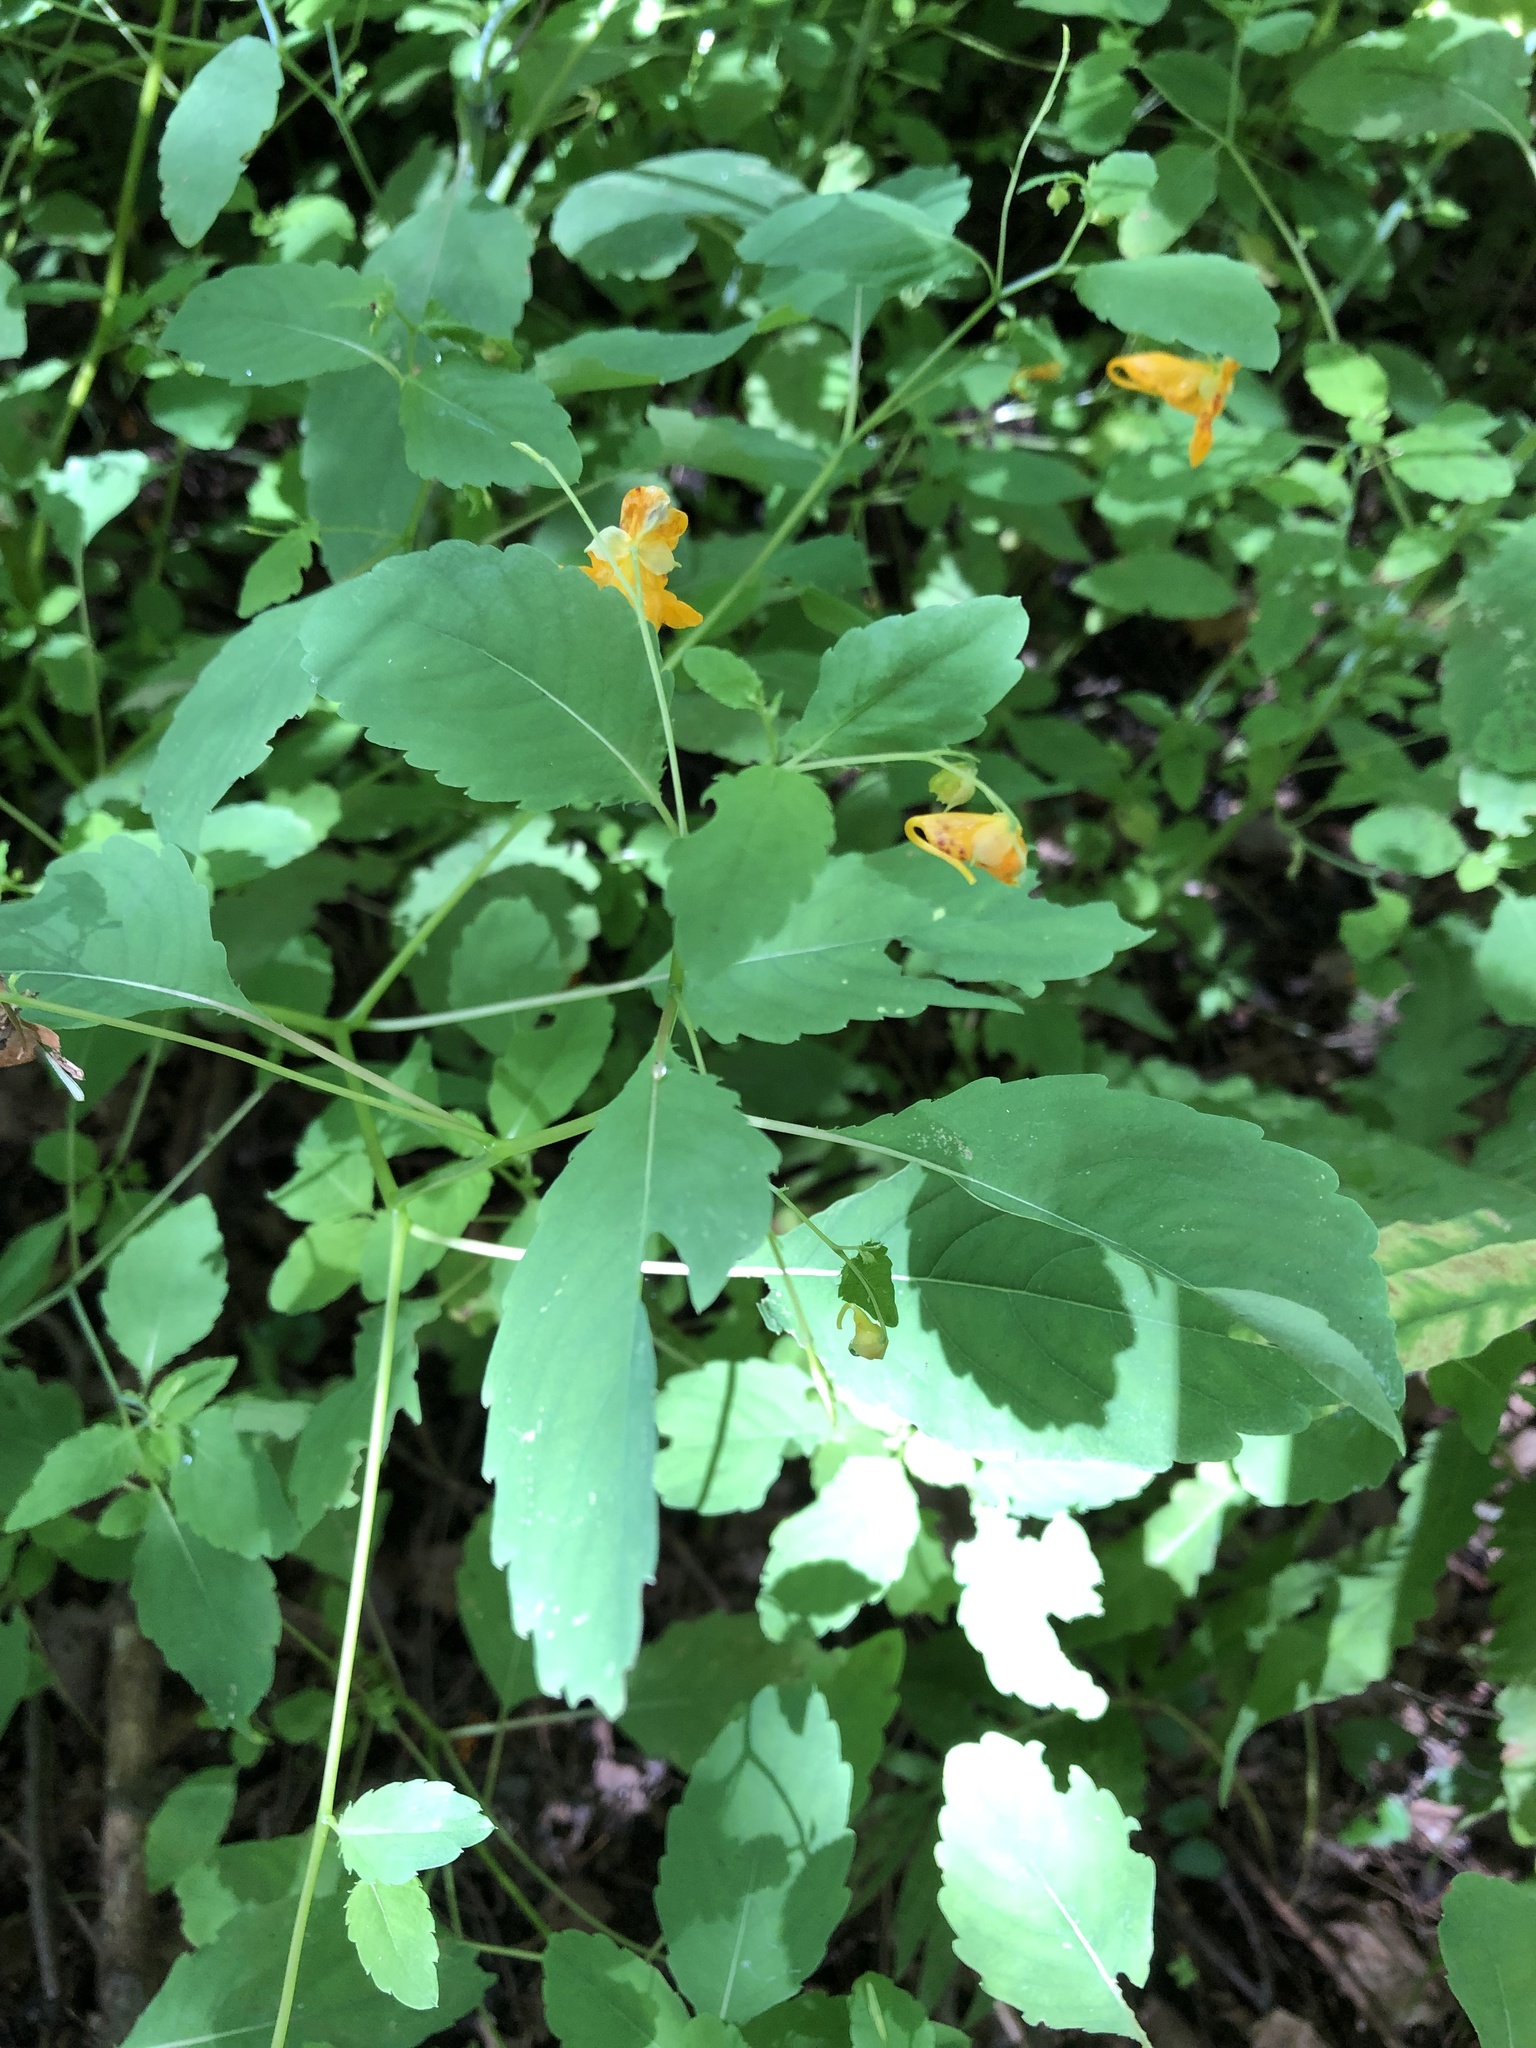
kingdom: Plantae
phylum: Tracheophyta
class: Magnoliopsida
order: Ericales
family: Balsaminaceae
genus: Impatiens
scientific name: Impatiens capensis
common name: Orange balsam
